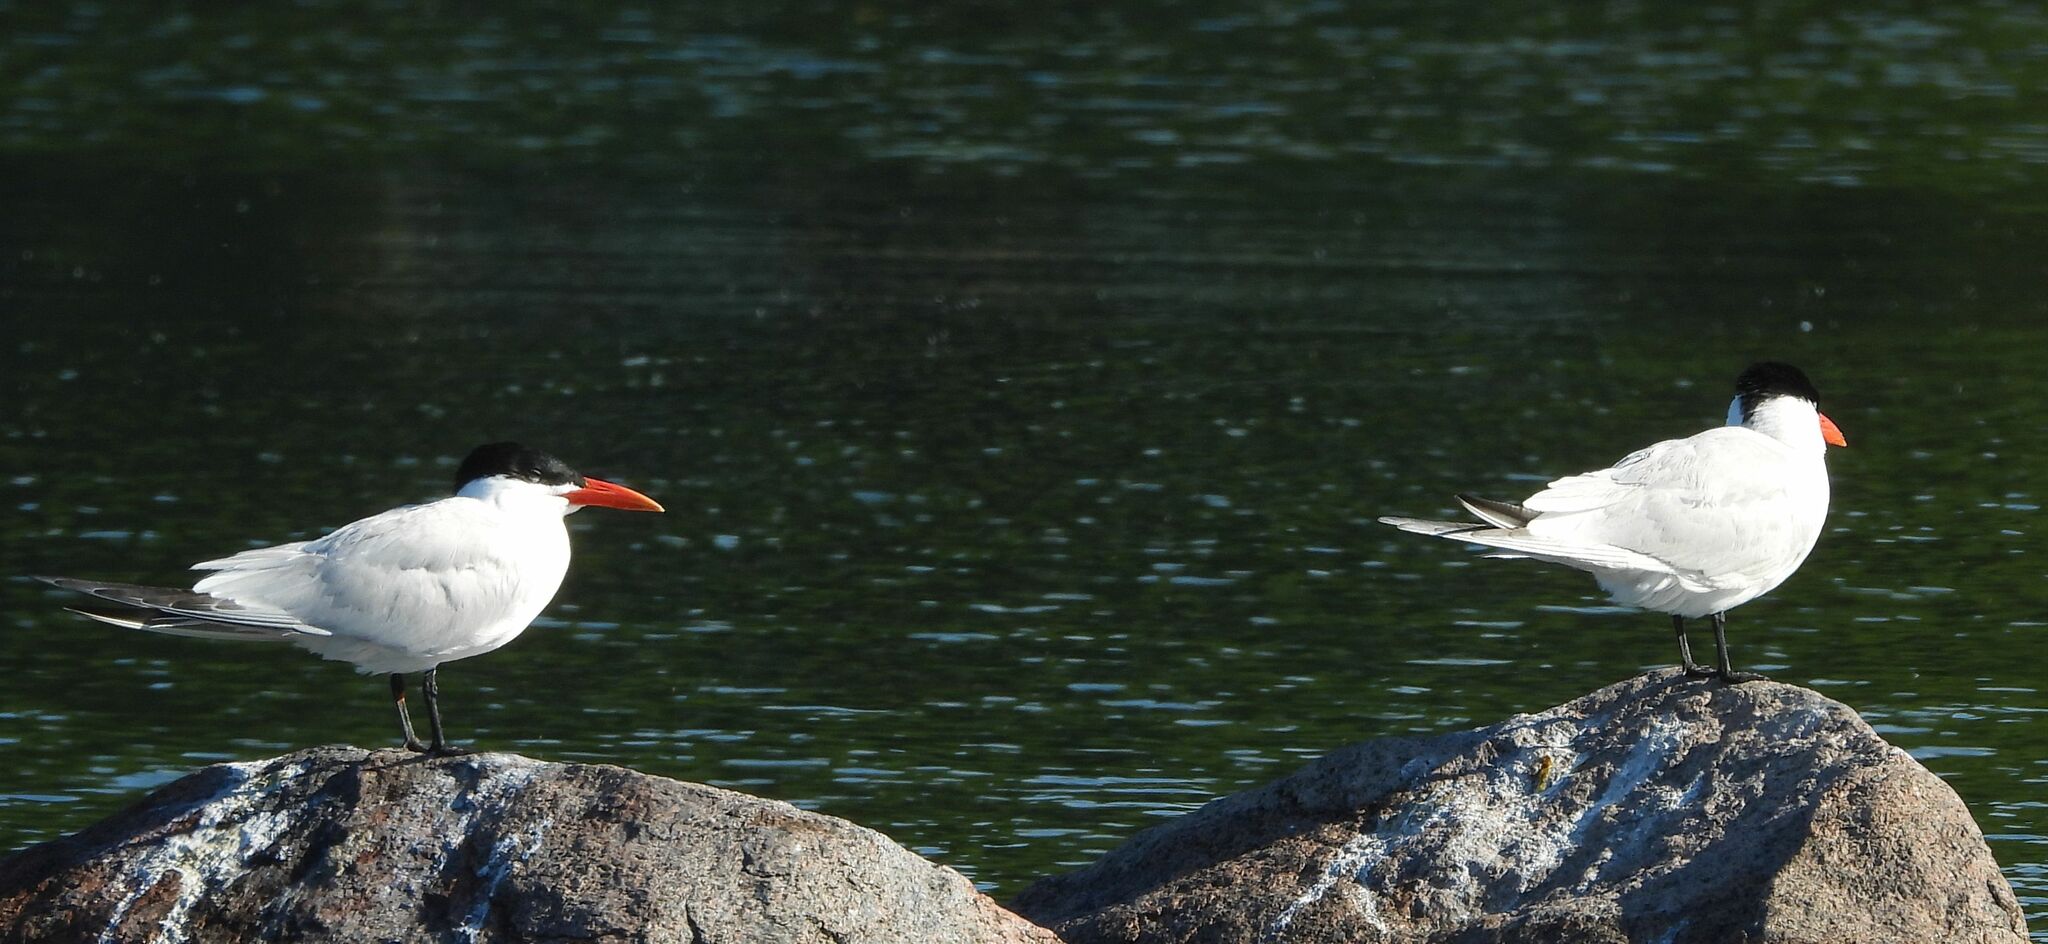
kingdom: Animalia
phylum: Chordata
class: Aves
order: Charadriiformes
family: Laridae
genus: Hydroprogne
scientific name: Hydroprogne caspia
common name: Caspian tern
